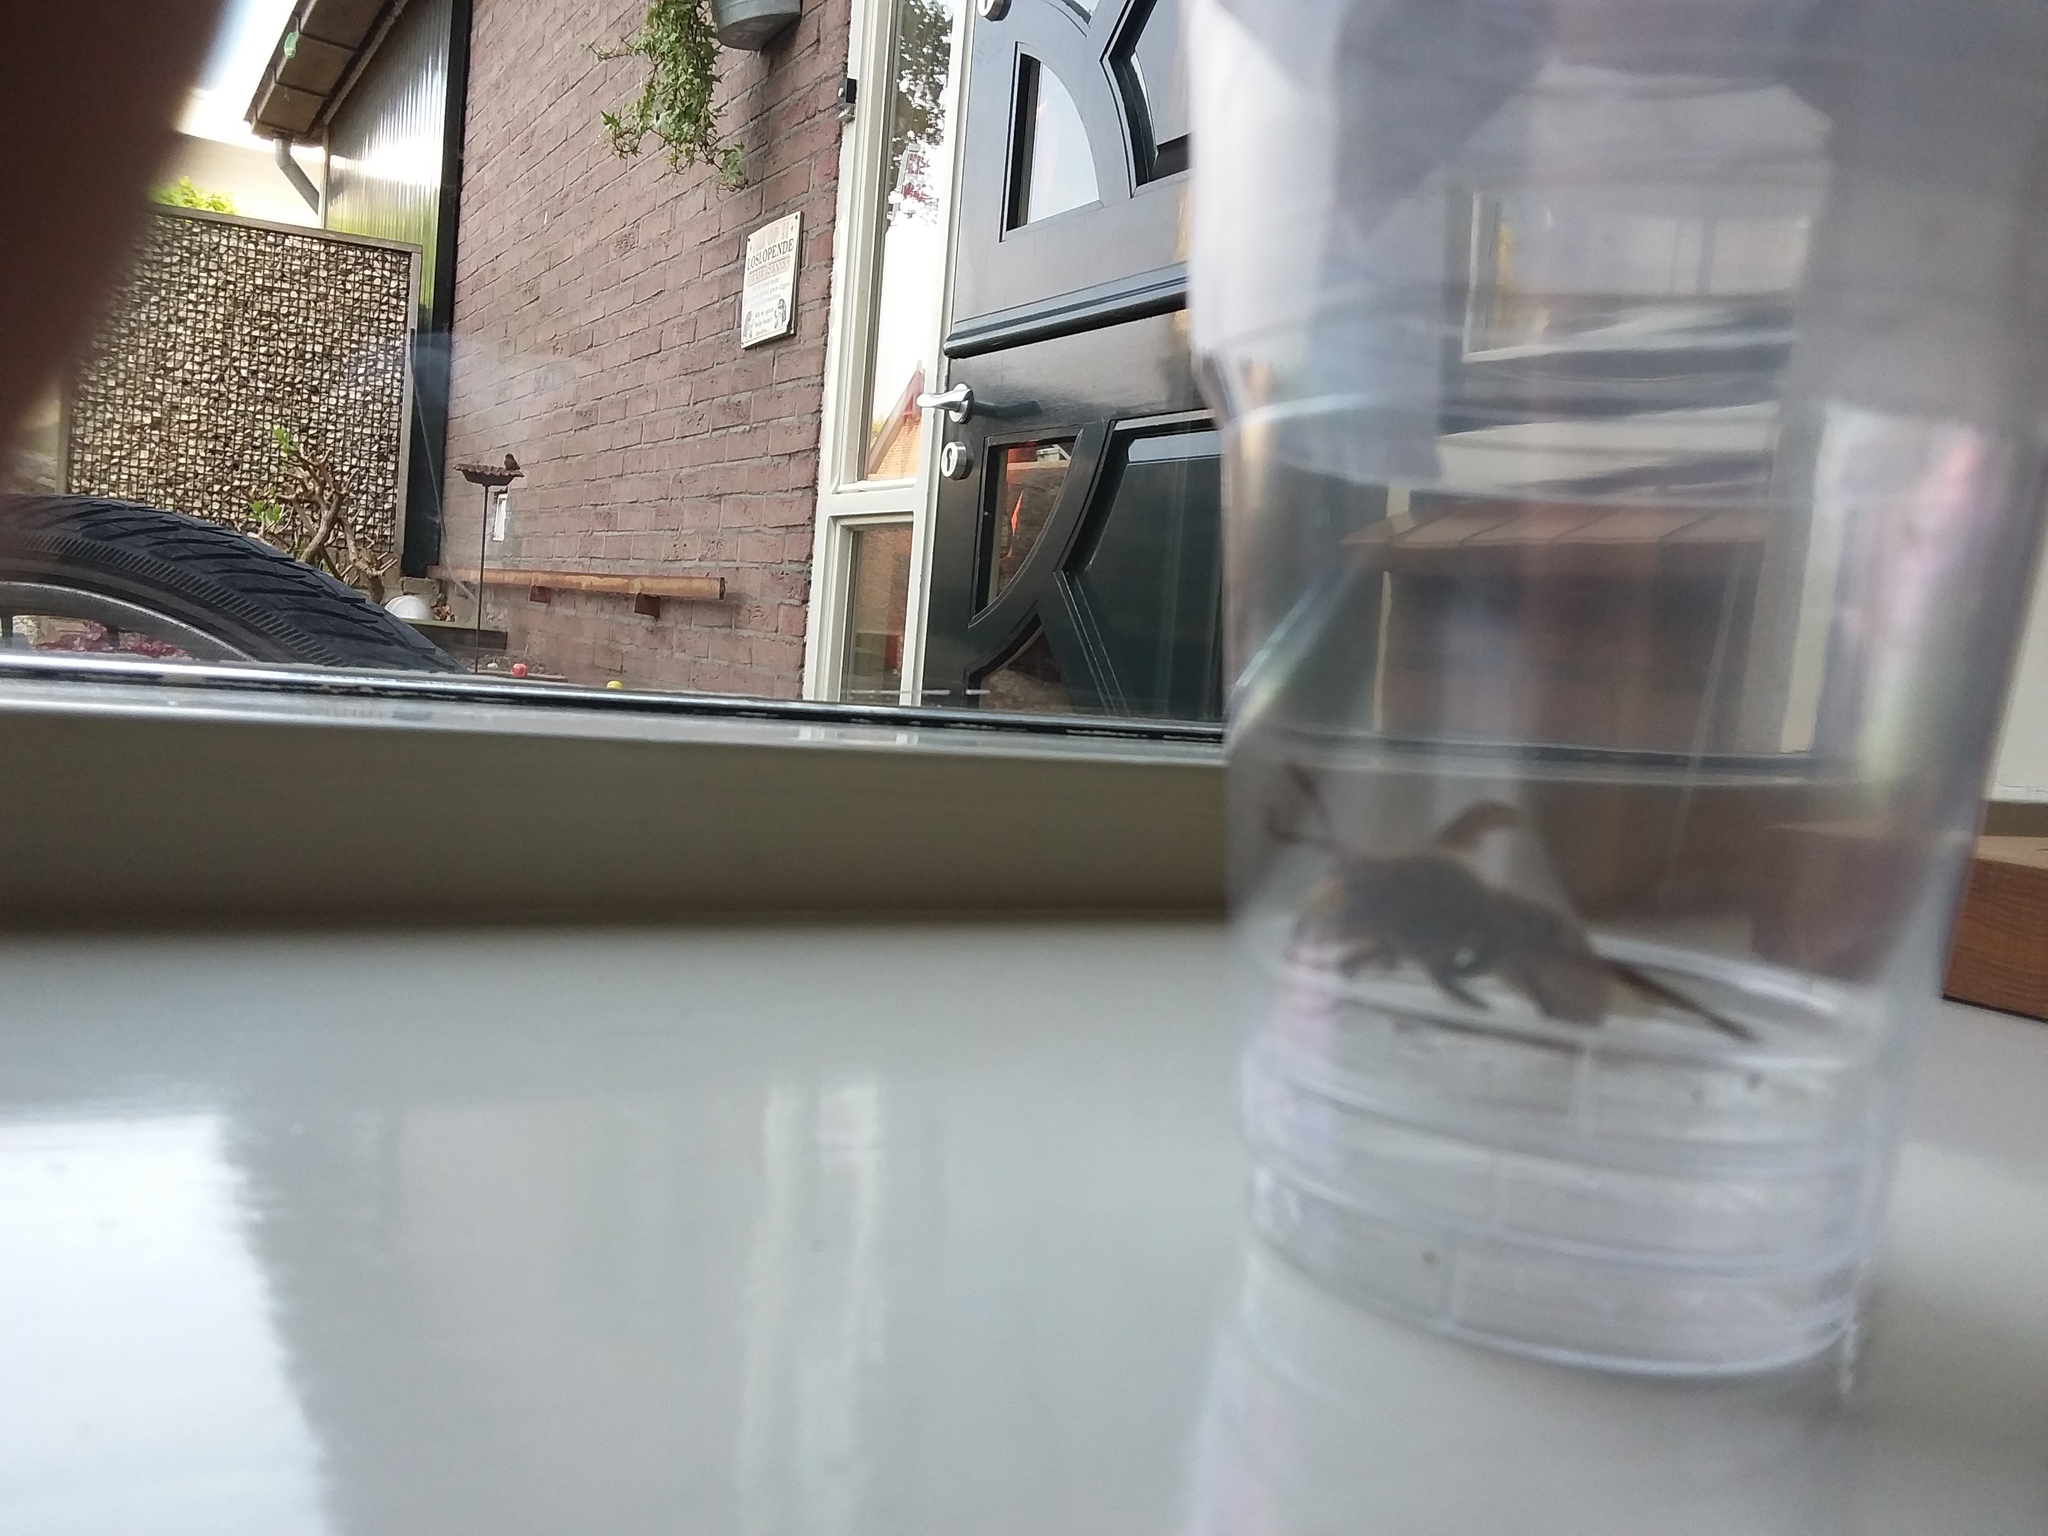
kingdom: Animalia
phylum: Arthropoda
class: Insecta
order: Hymenoptera
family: Vespidae
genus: Vespa
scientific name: Vespa crabro
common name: Hornet
